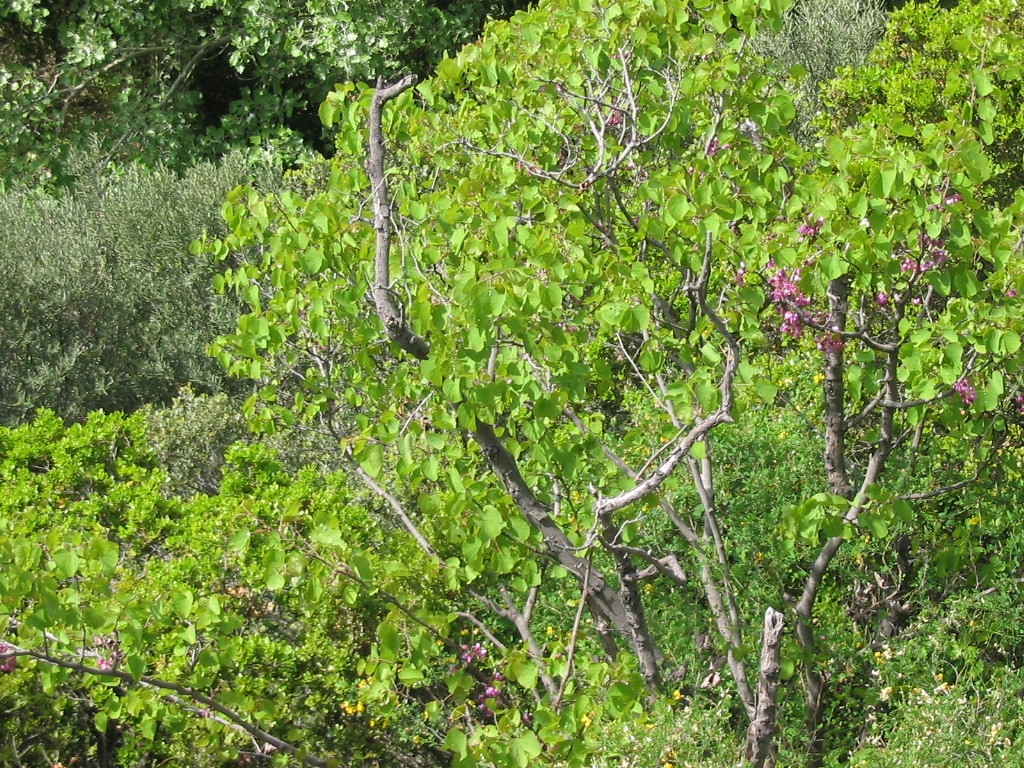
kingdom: Plantae
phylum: Tracheophyta
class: Magnoliopsida
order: Fabales
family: Fabaceae
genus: Cercis
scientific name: Cercis siliquastrum
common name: Judas tree
